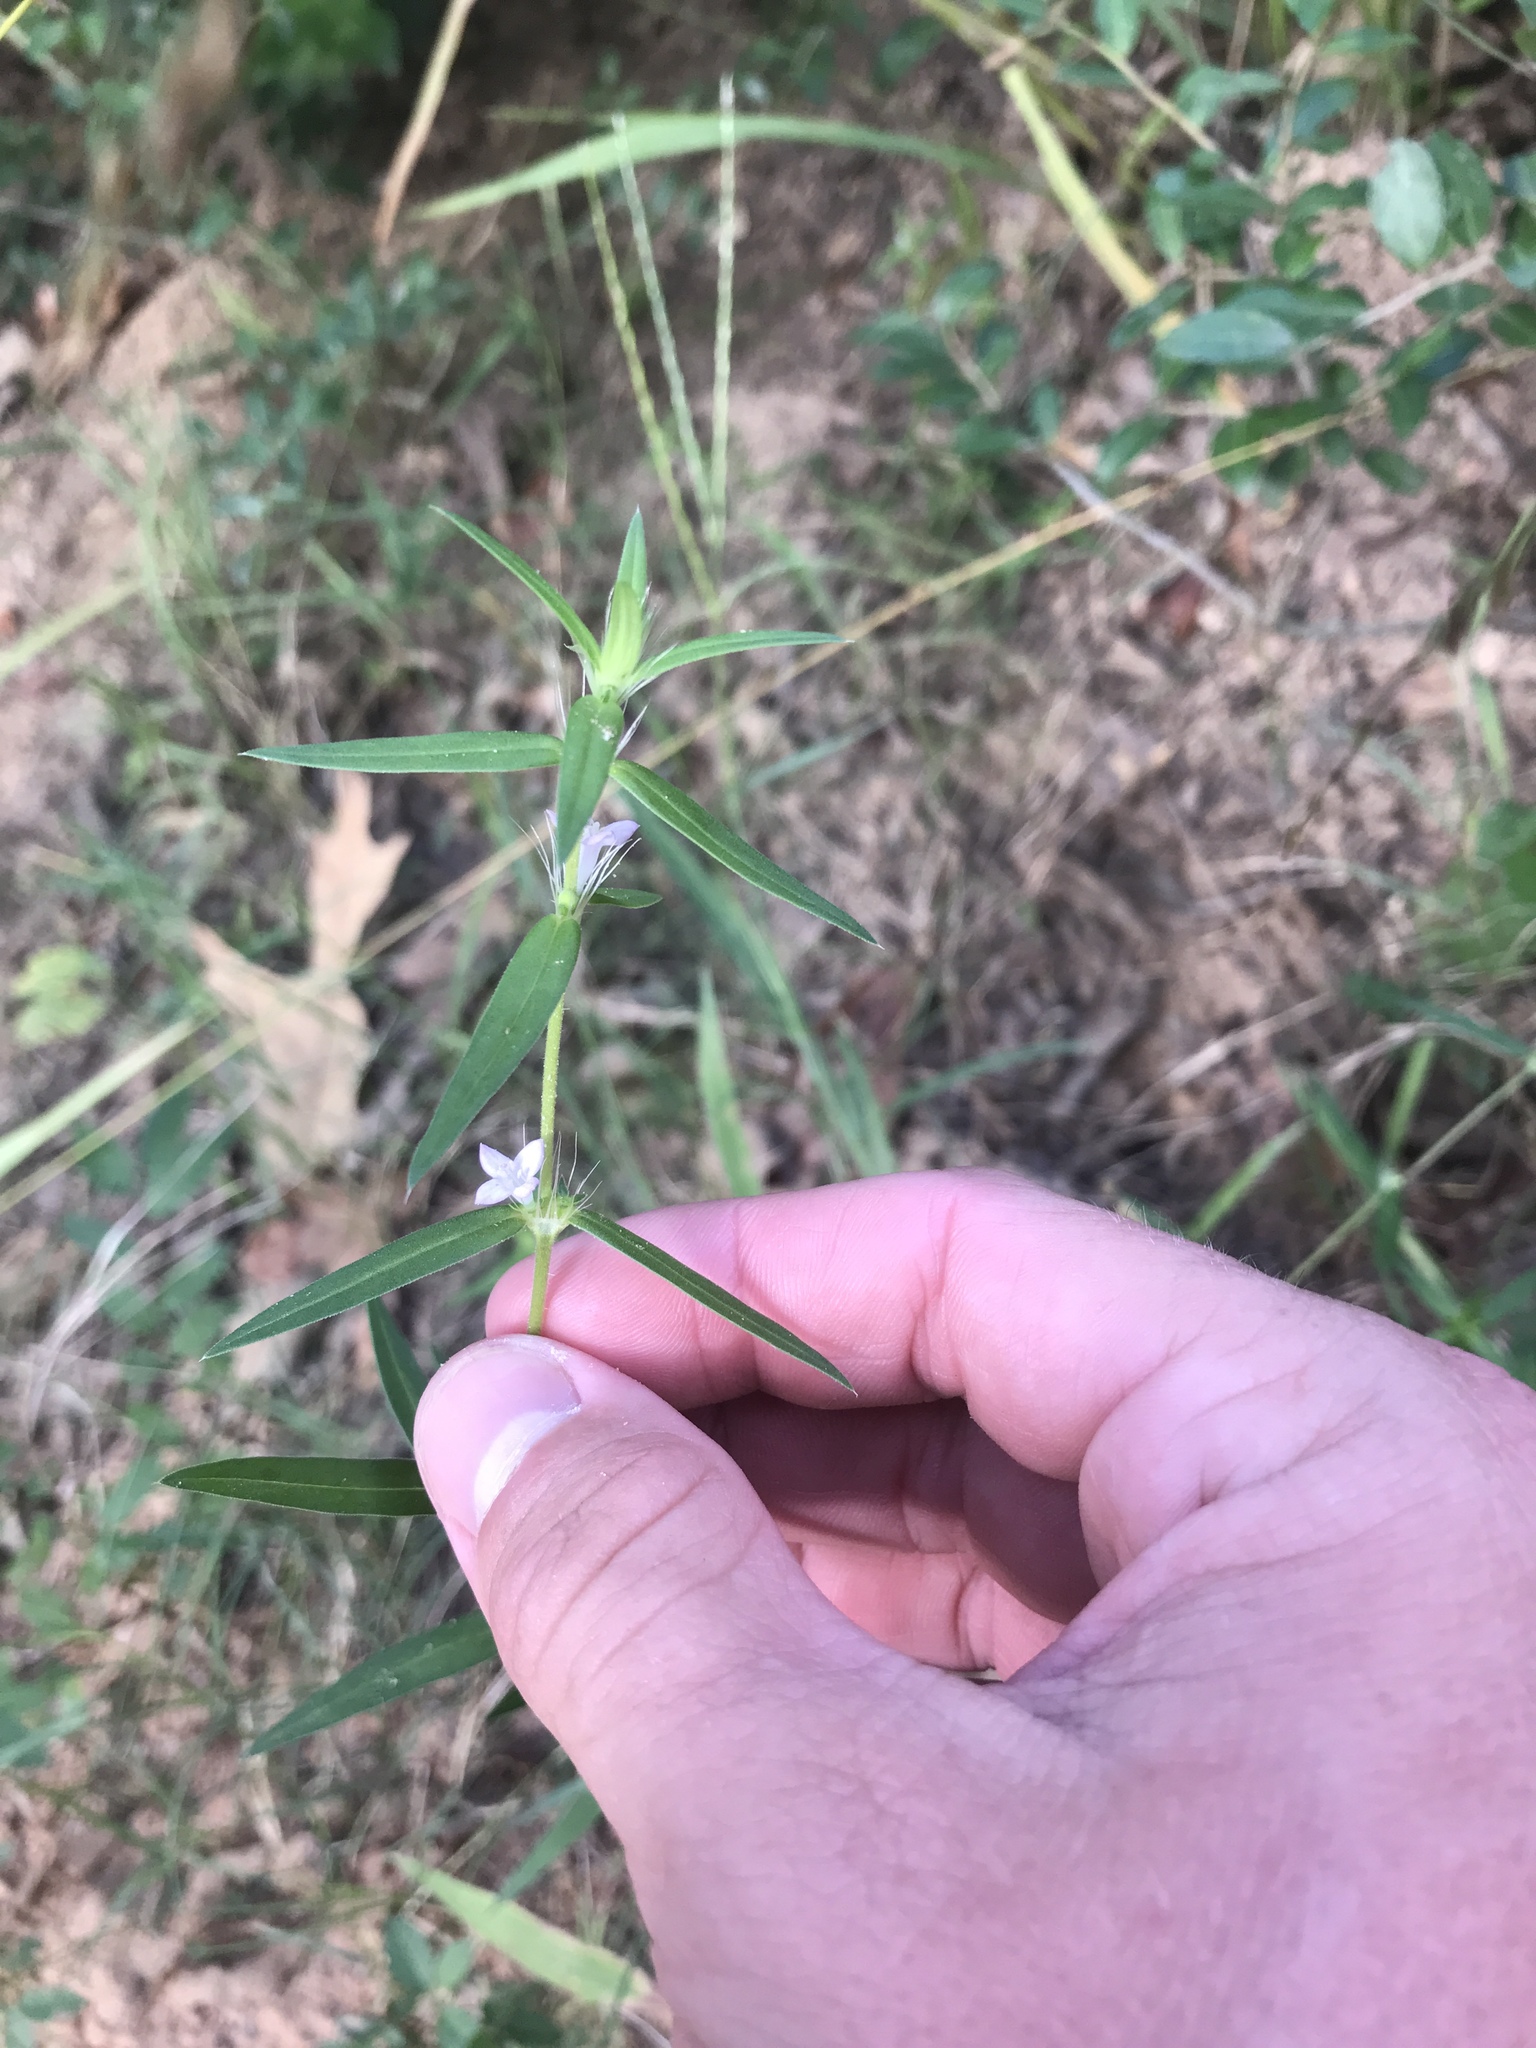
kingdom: Plantae
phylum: Tracheophyta
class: Magnoliopsida
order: Gentianales
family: Rubiaceae
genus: Hexasepalum
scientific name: Hexasepalum teres
